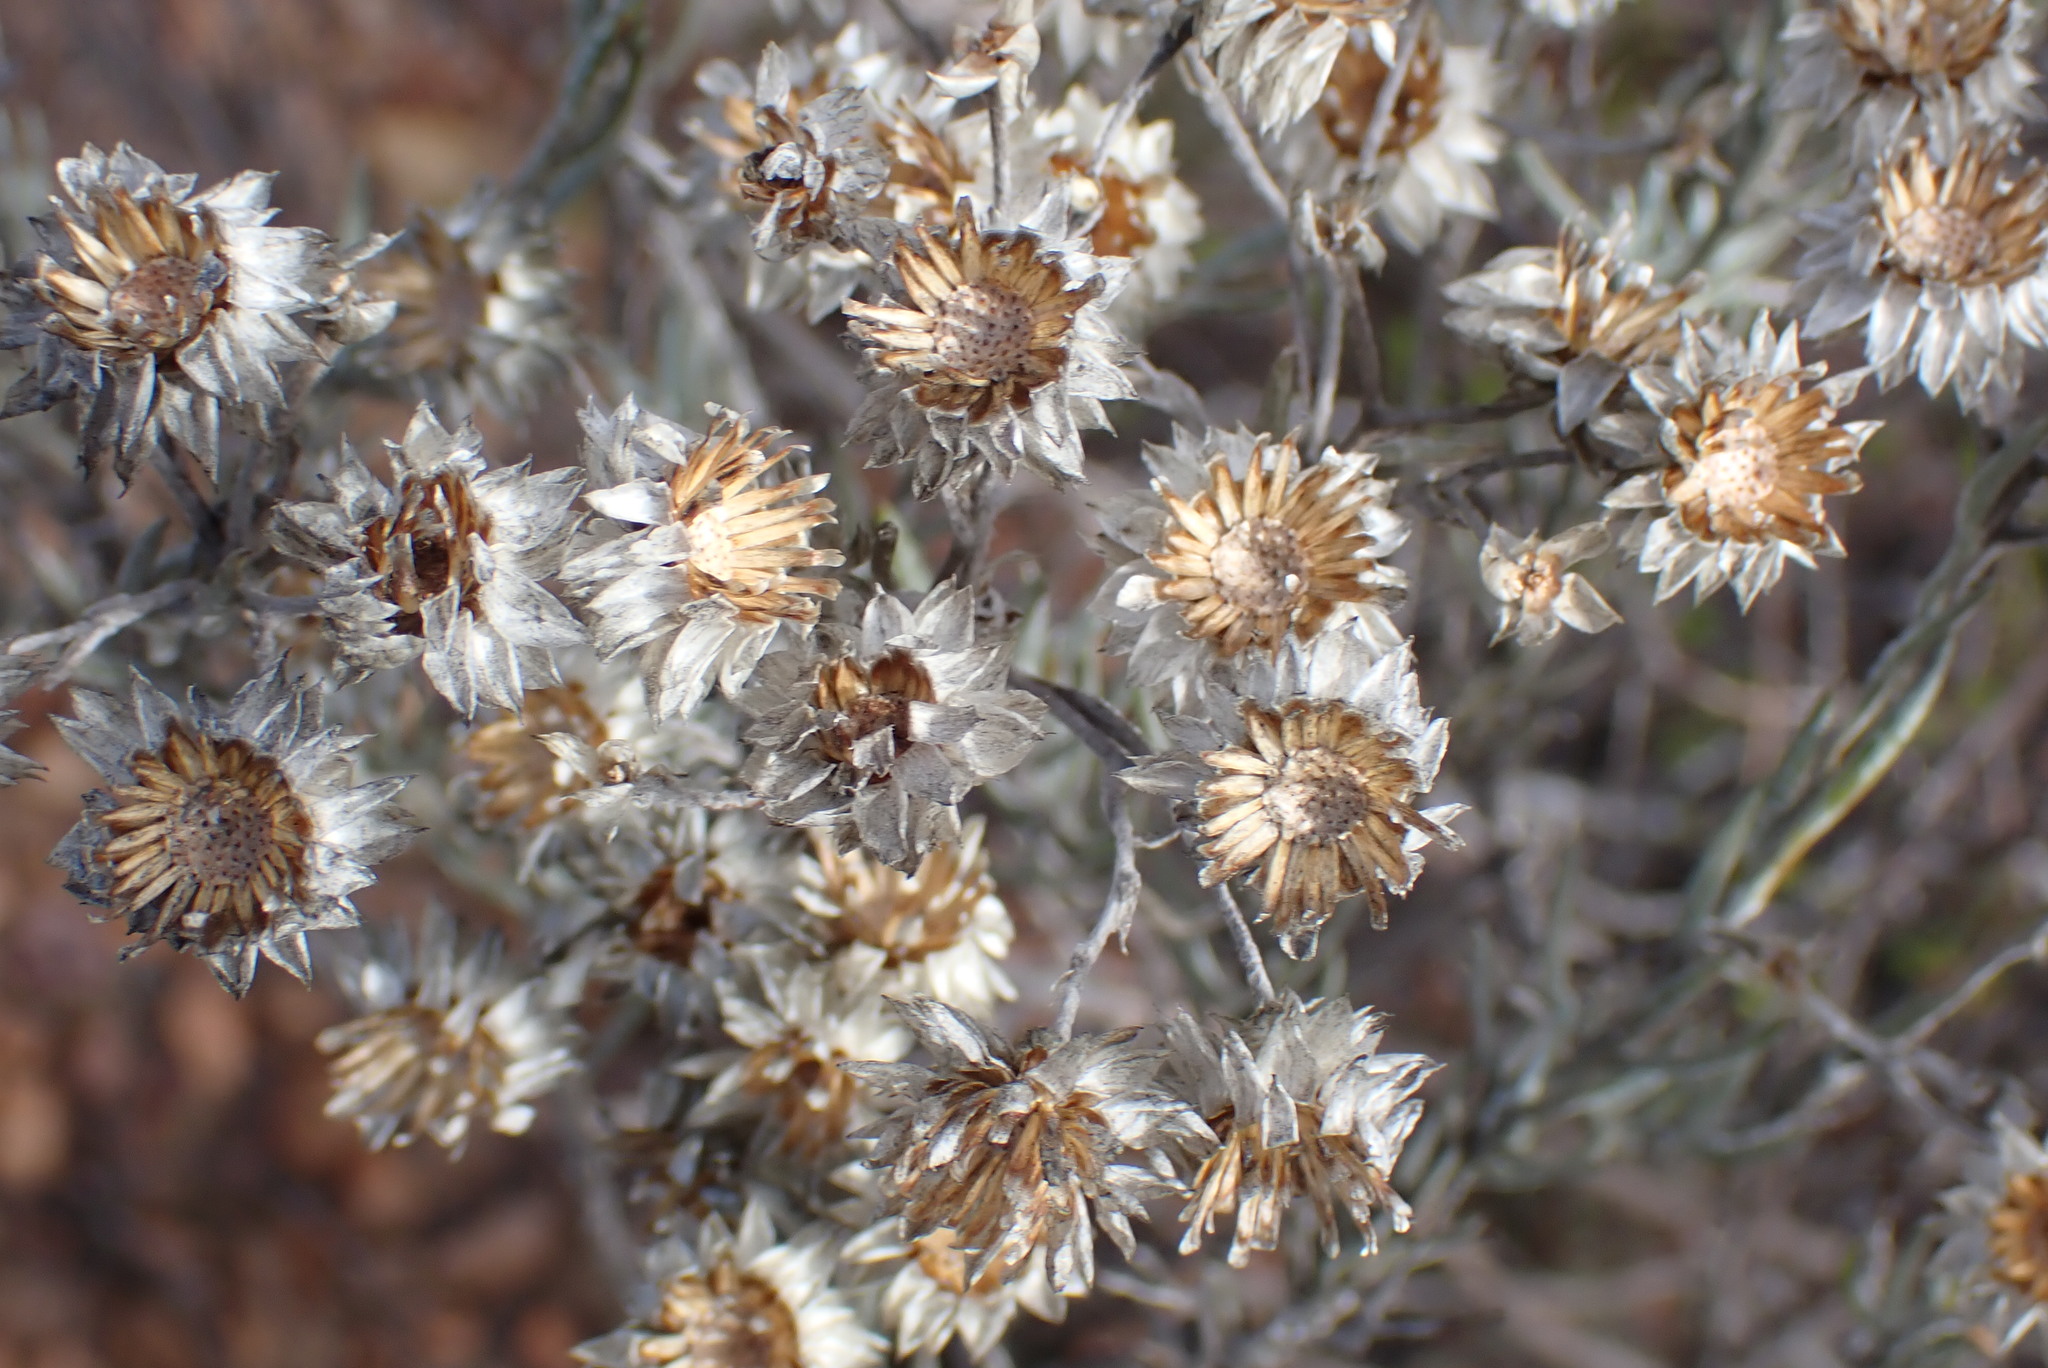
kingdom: Plantae
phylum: Tracheophyta
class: Magnoliopsida
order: Asterales
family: Asteraceae
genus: Achyranthemum
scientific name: Achyranthemum paniculatum
